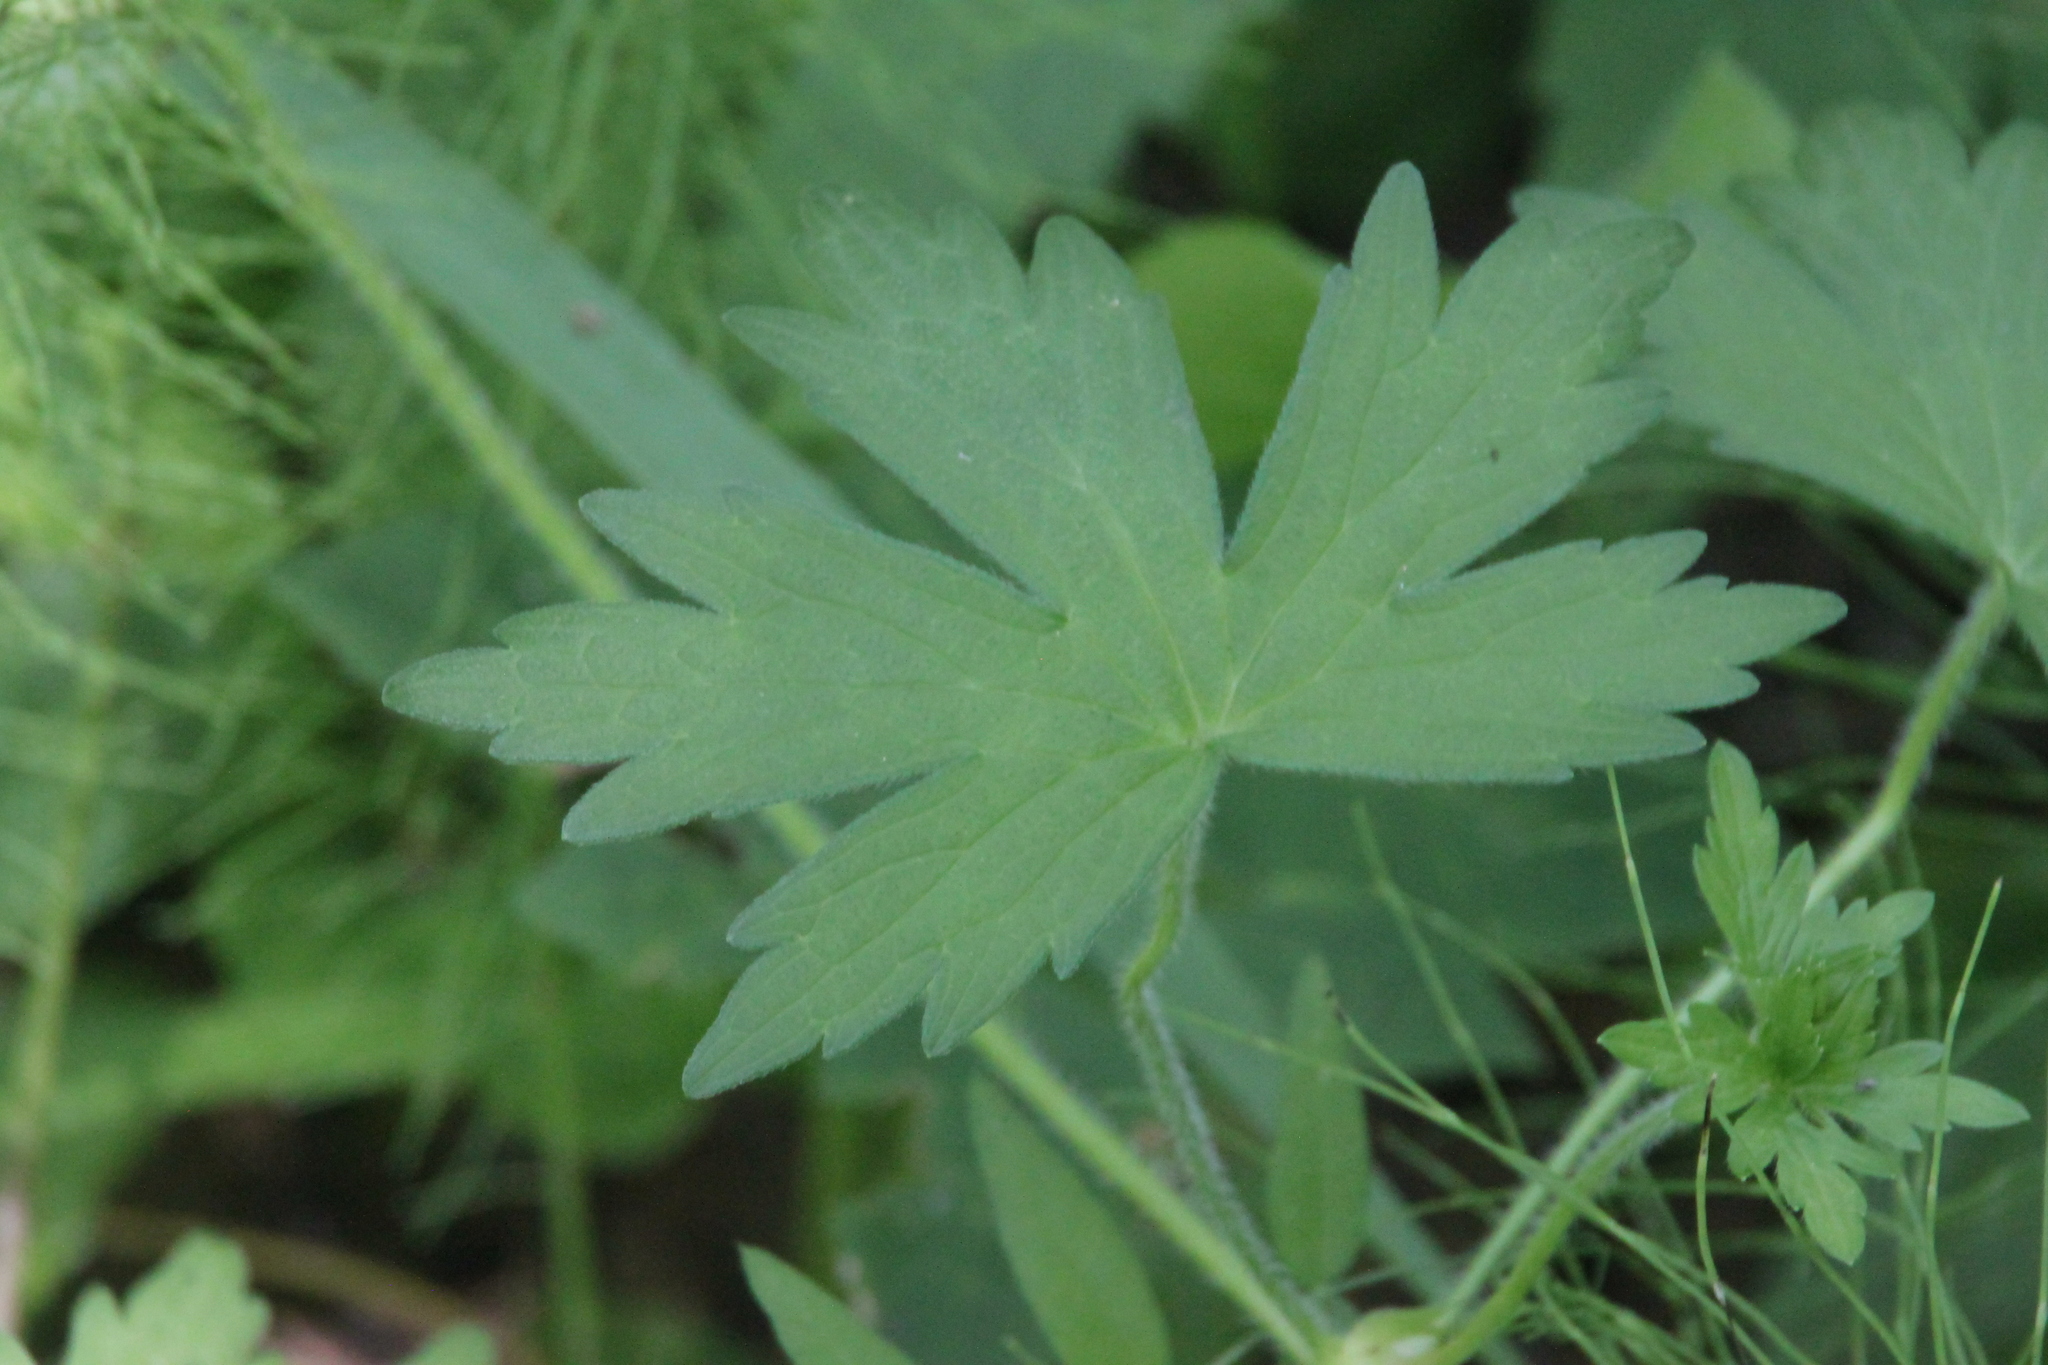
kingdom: Plantae
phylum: Tracheophyta
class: Magnoliopsida
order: Geraniales
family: Geraniaceae
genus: Geranium
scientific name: Geranium palustre
